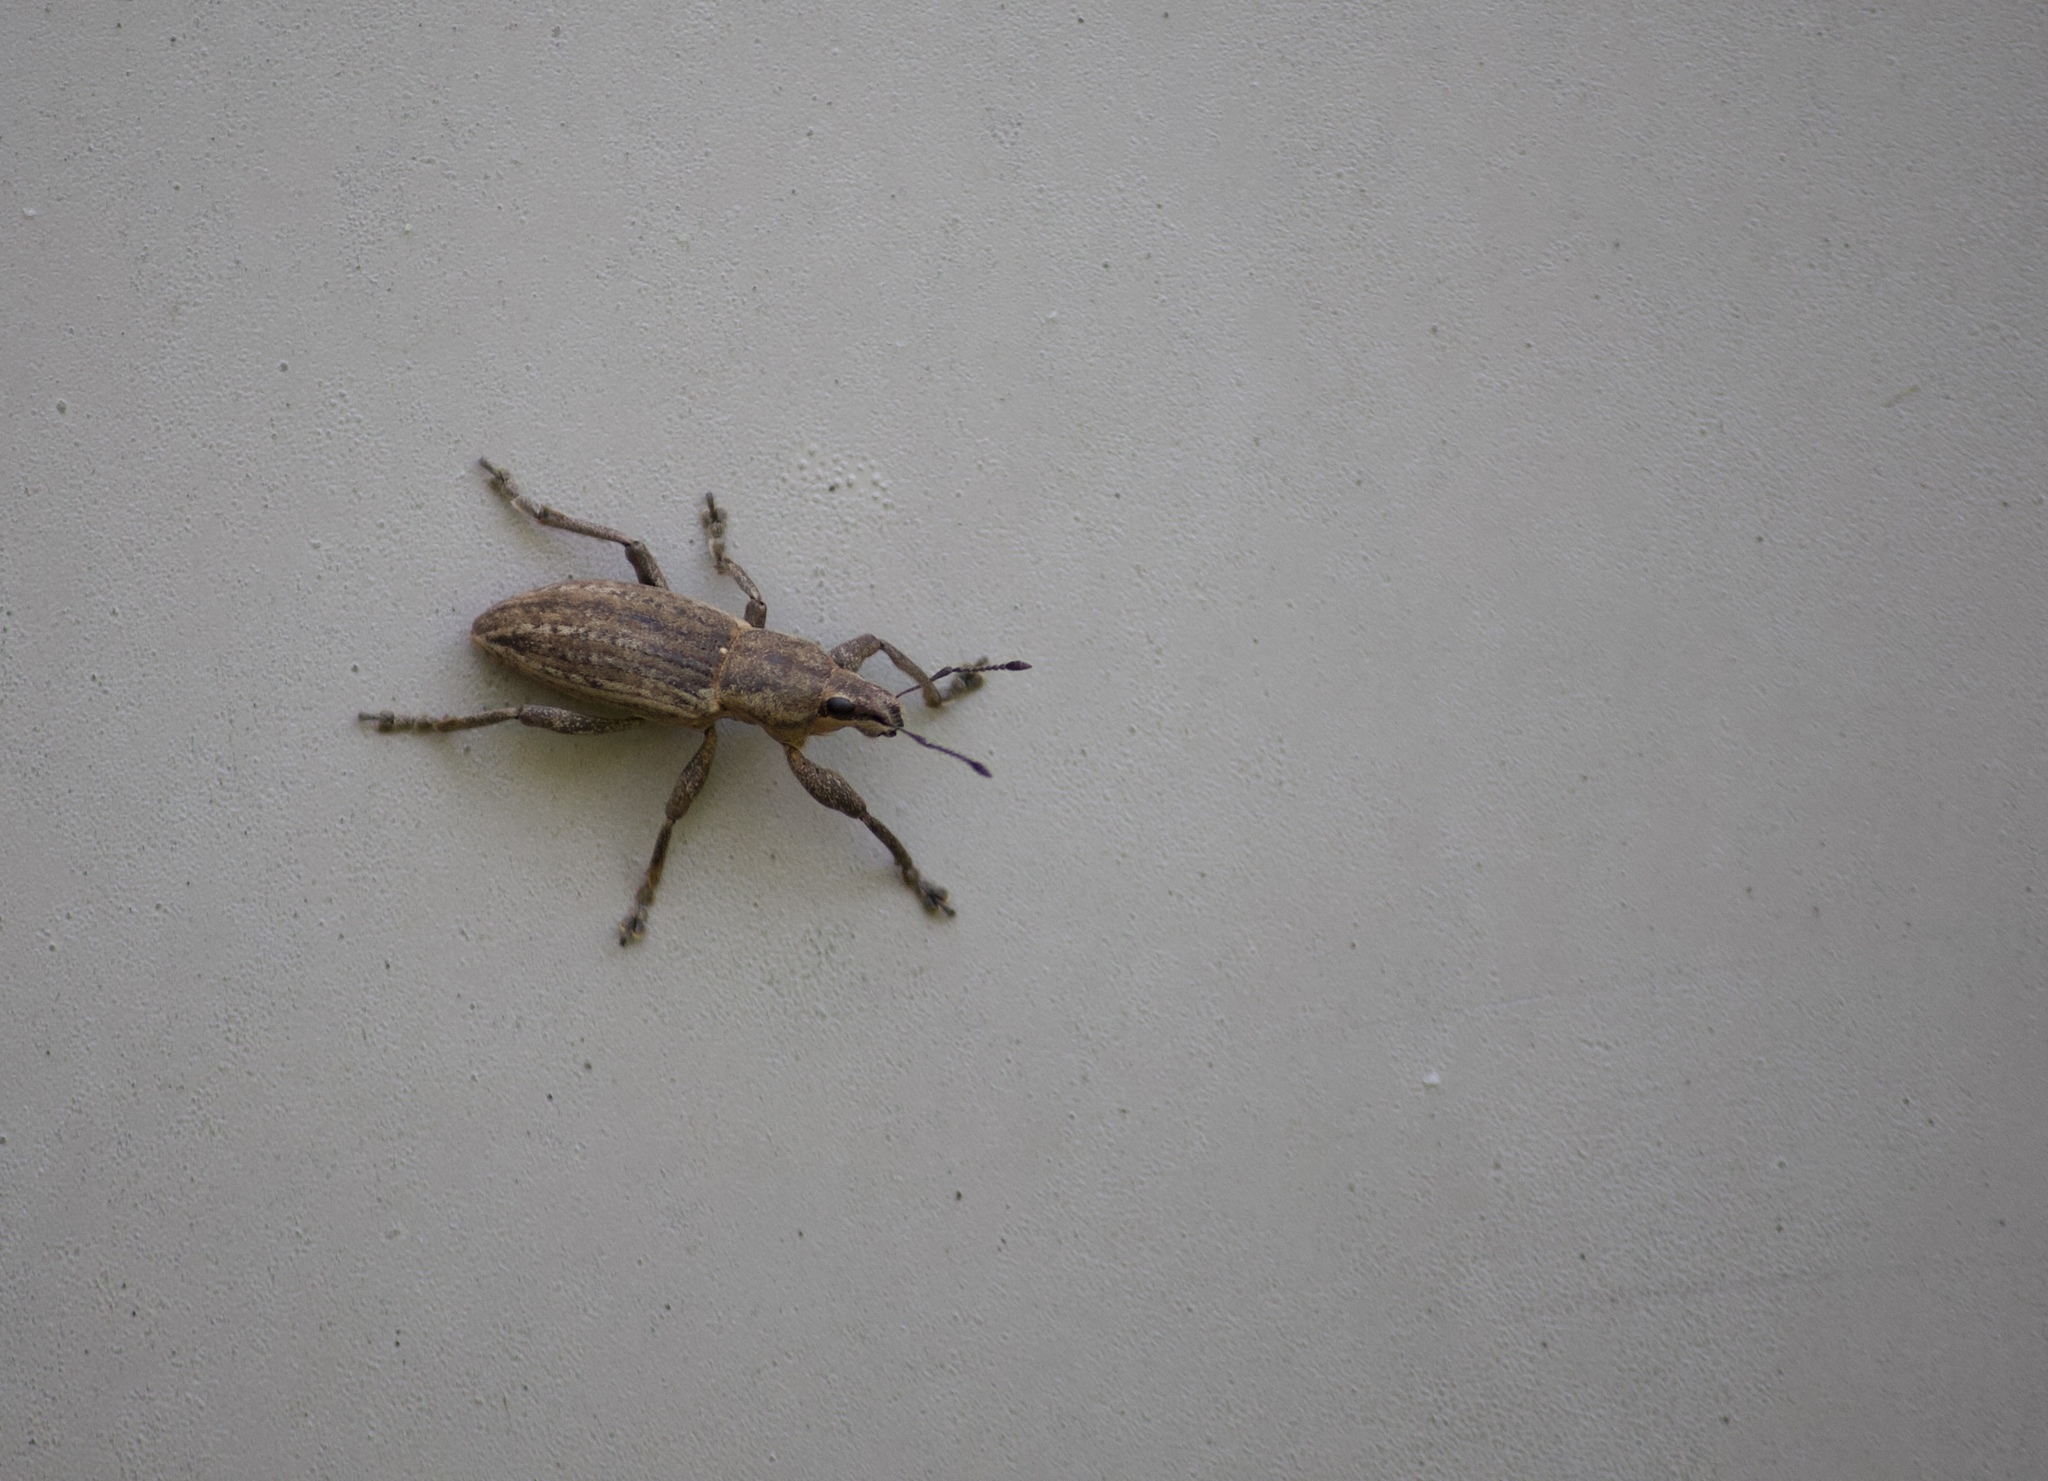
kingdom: Animalia
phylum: Arthropoda
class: Insecta
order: Coleoptera
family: Curculionidae
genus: Tanymecus
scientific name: Tanymecus lacaena
